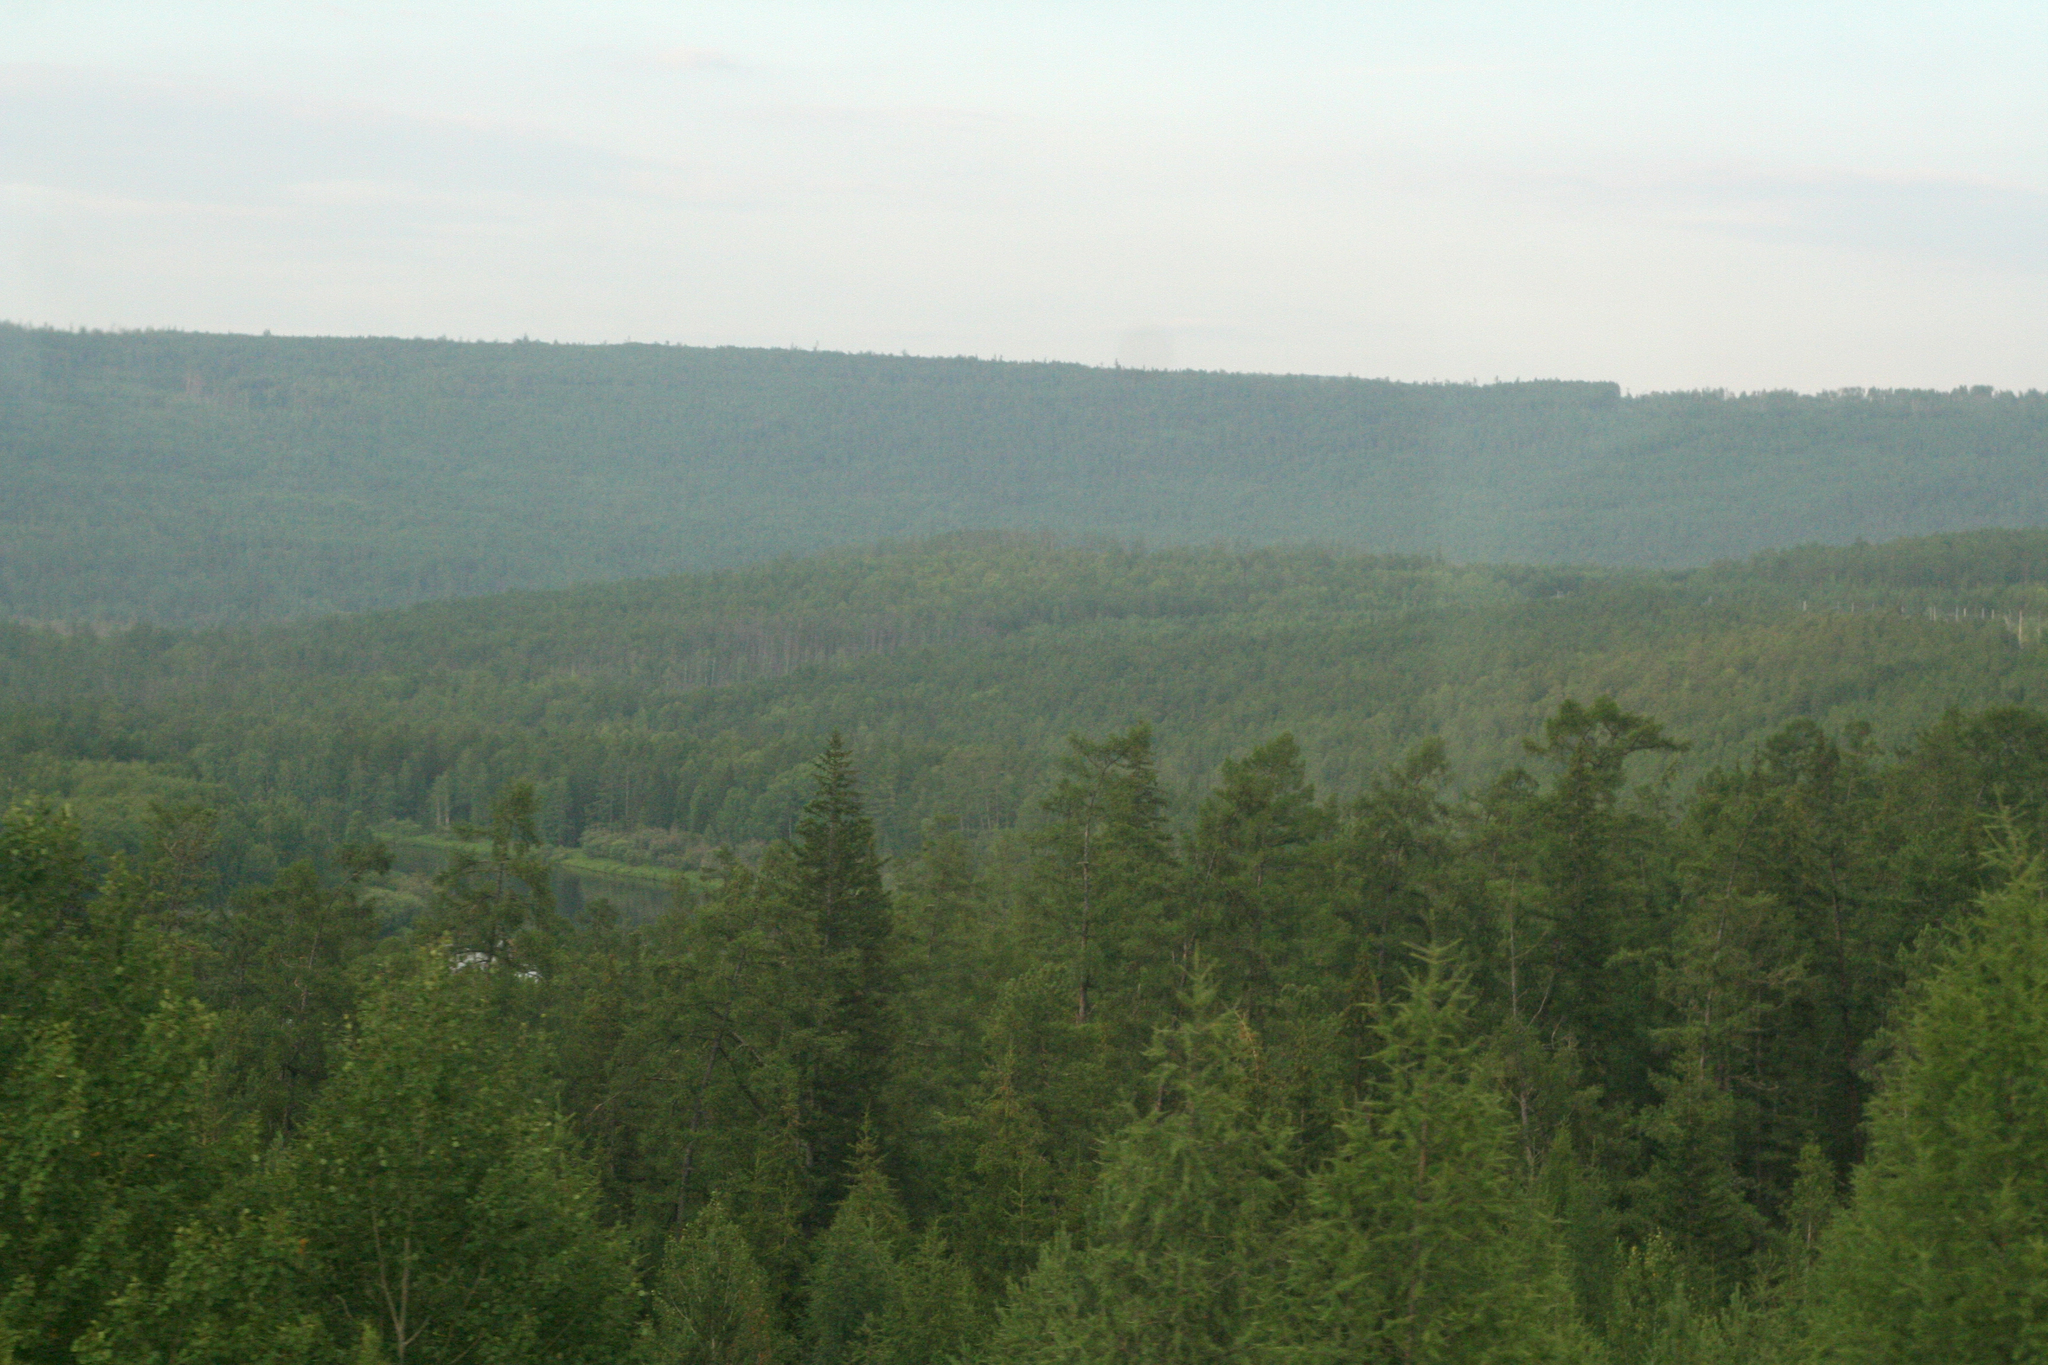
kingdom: Plantae
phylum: Tracheophyta
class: Pinopsida
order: Pinales
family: Pinaceae
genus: Picea
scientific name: Picea obovata
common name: Siberian spruce
